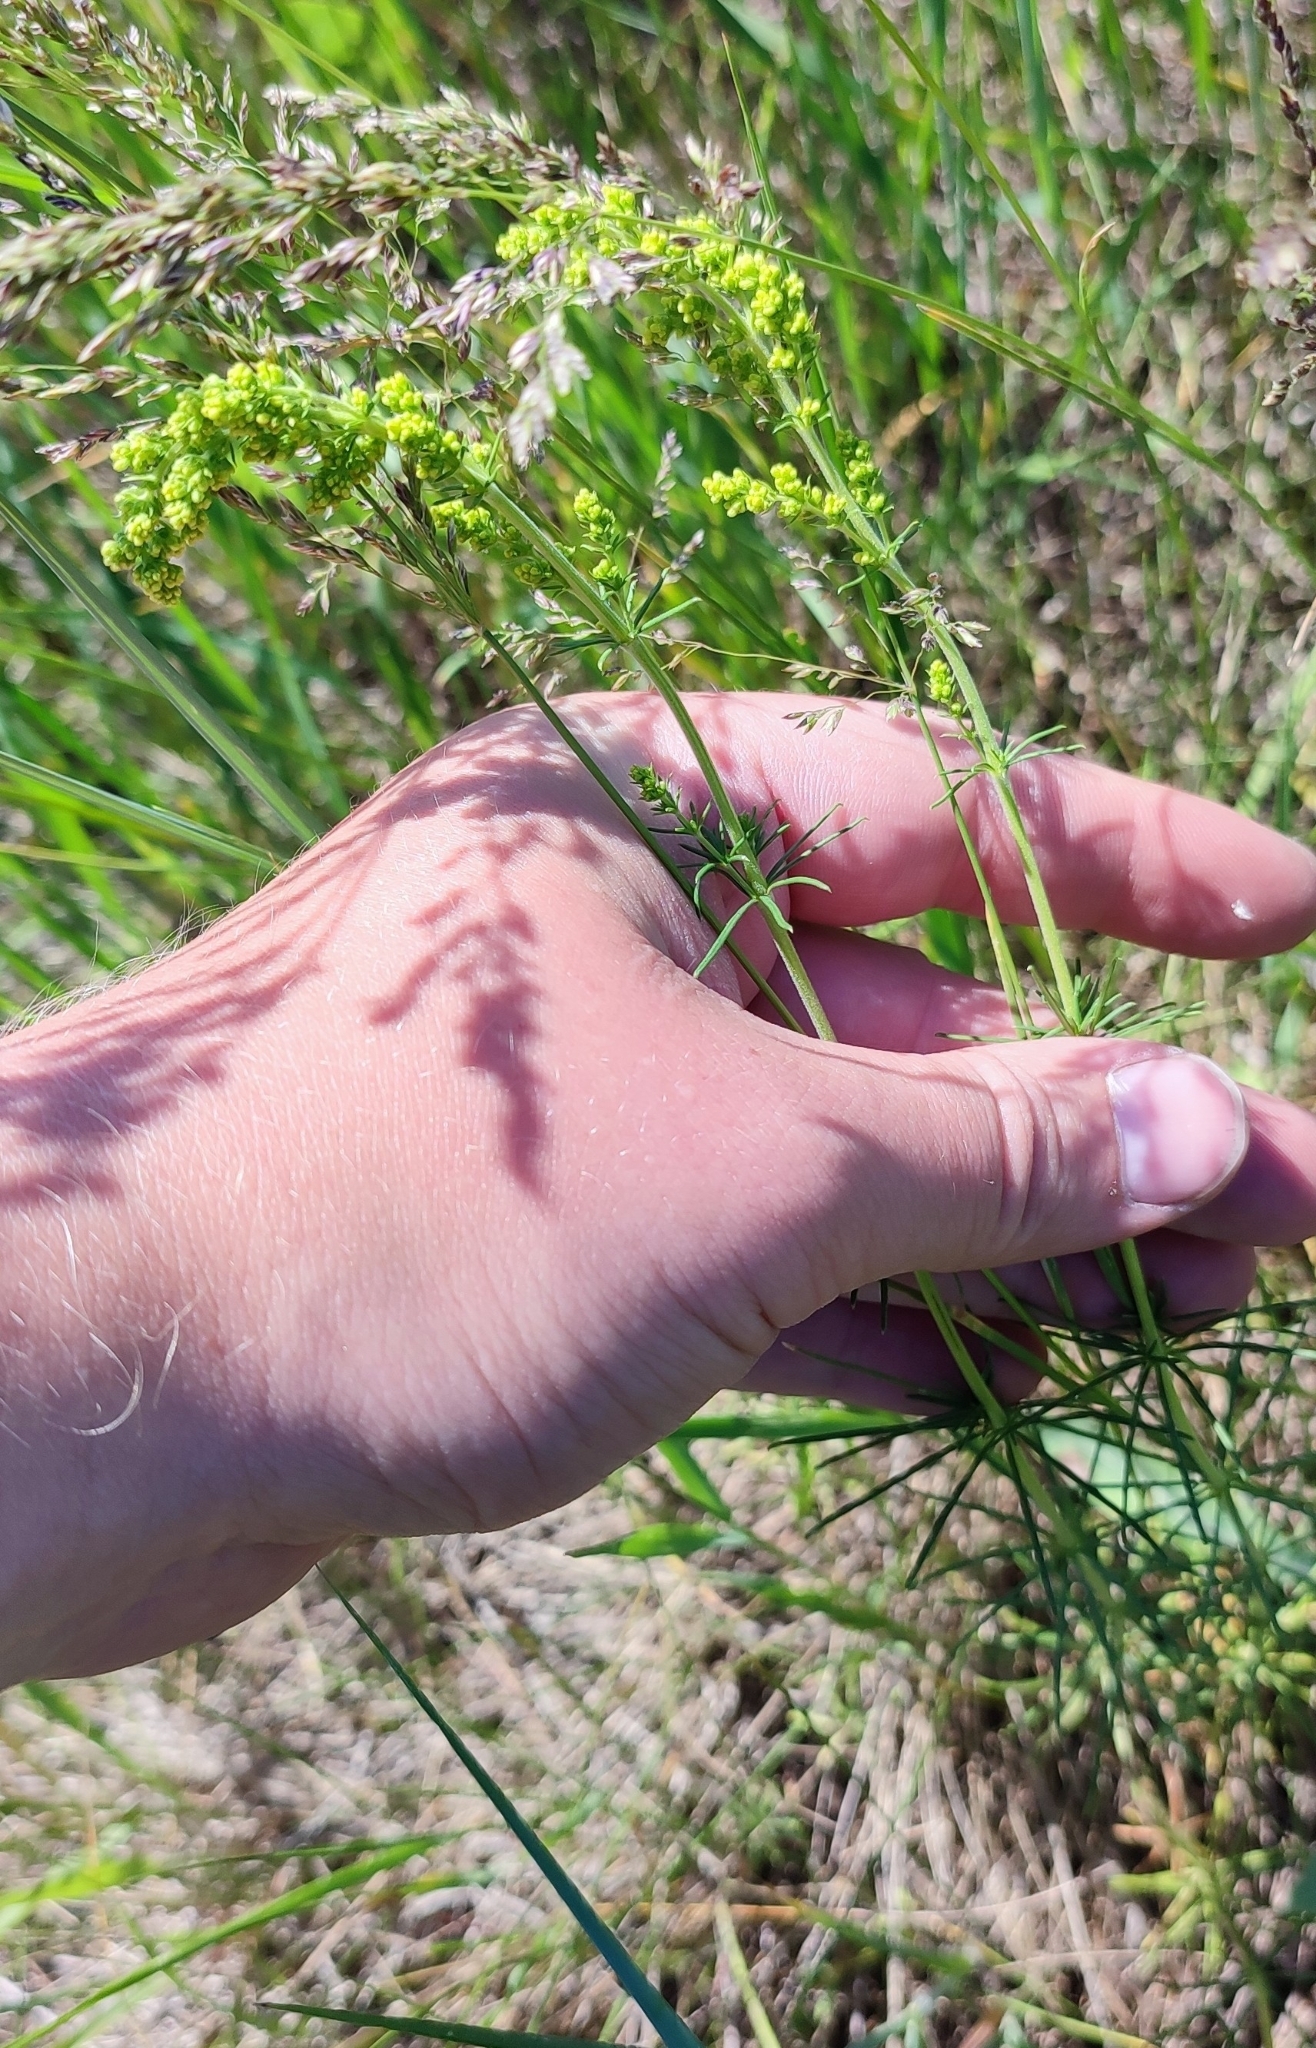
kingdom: Plantae
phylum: Tracheophyta
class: Magnoliopsida
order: Gentianales
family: Rubiaceae
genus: Galium
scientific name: Galium verum
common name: Lady's bedstraw
